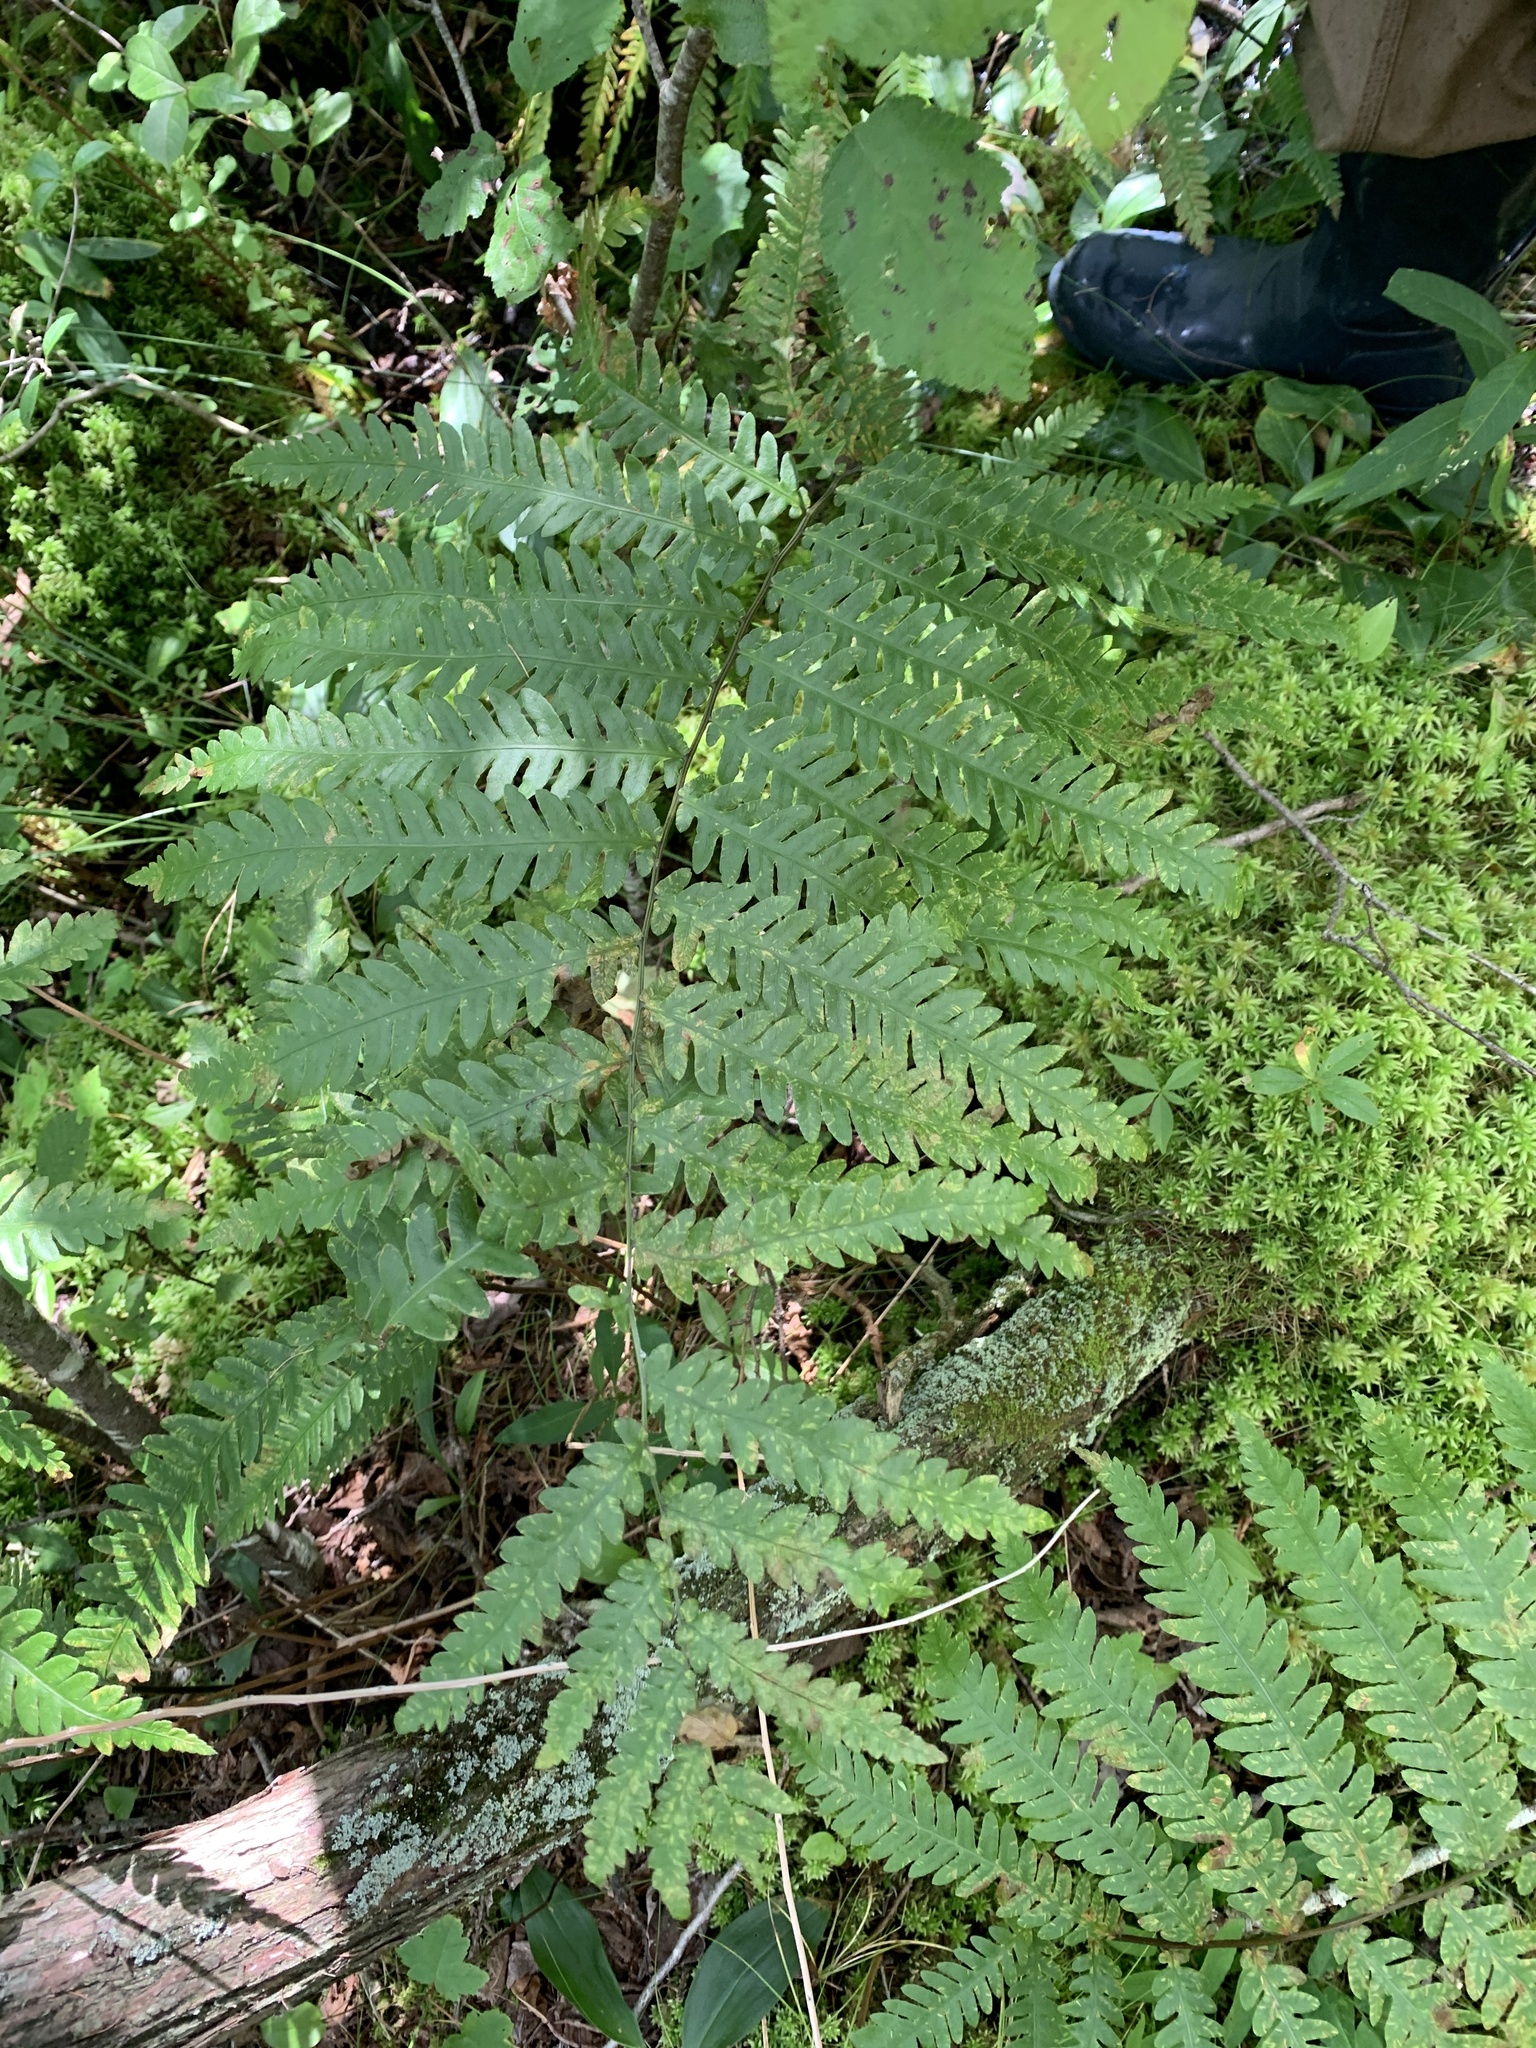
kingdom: Plantae
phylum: Tracheophyta
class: Polypodiopsida
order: Polypodiales
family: Blechnaceae
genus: Anchistea
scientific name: Anchistea virginica
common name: Virginia chain fern
